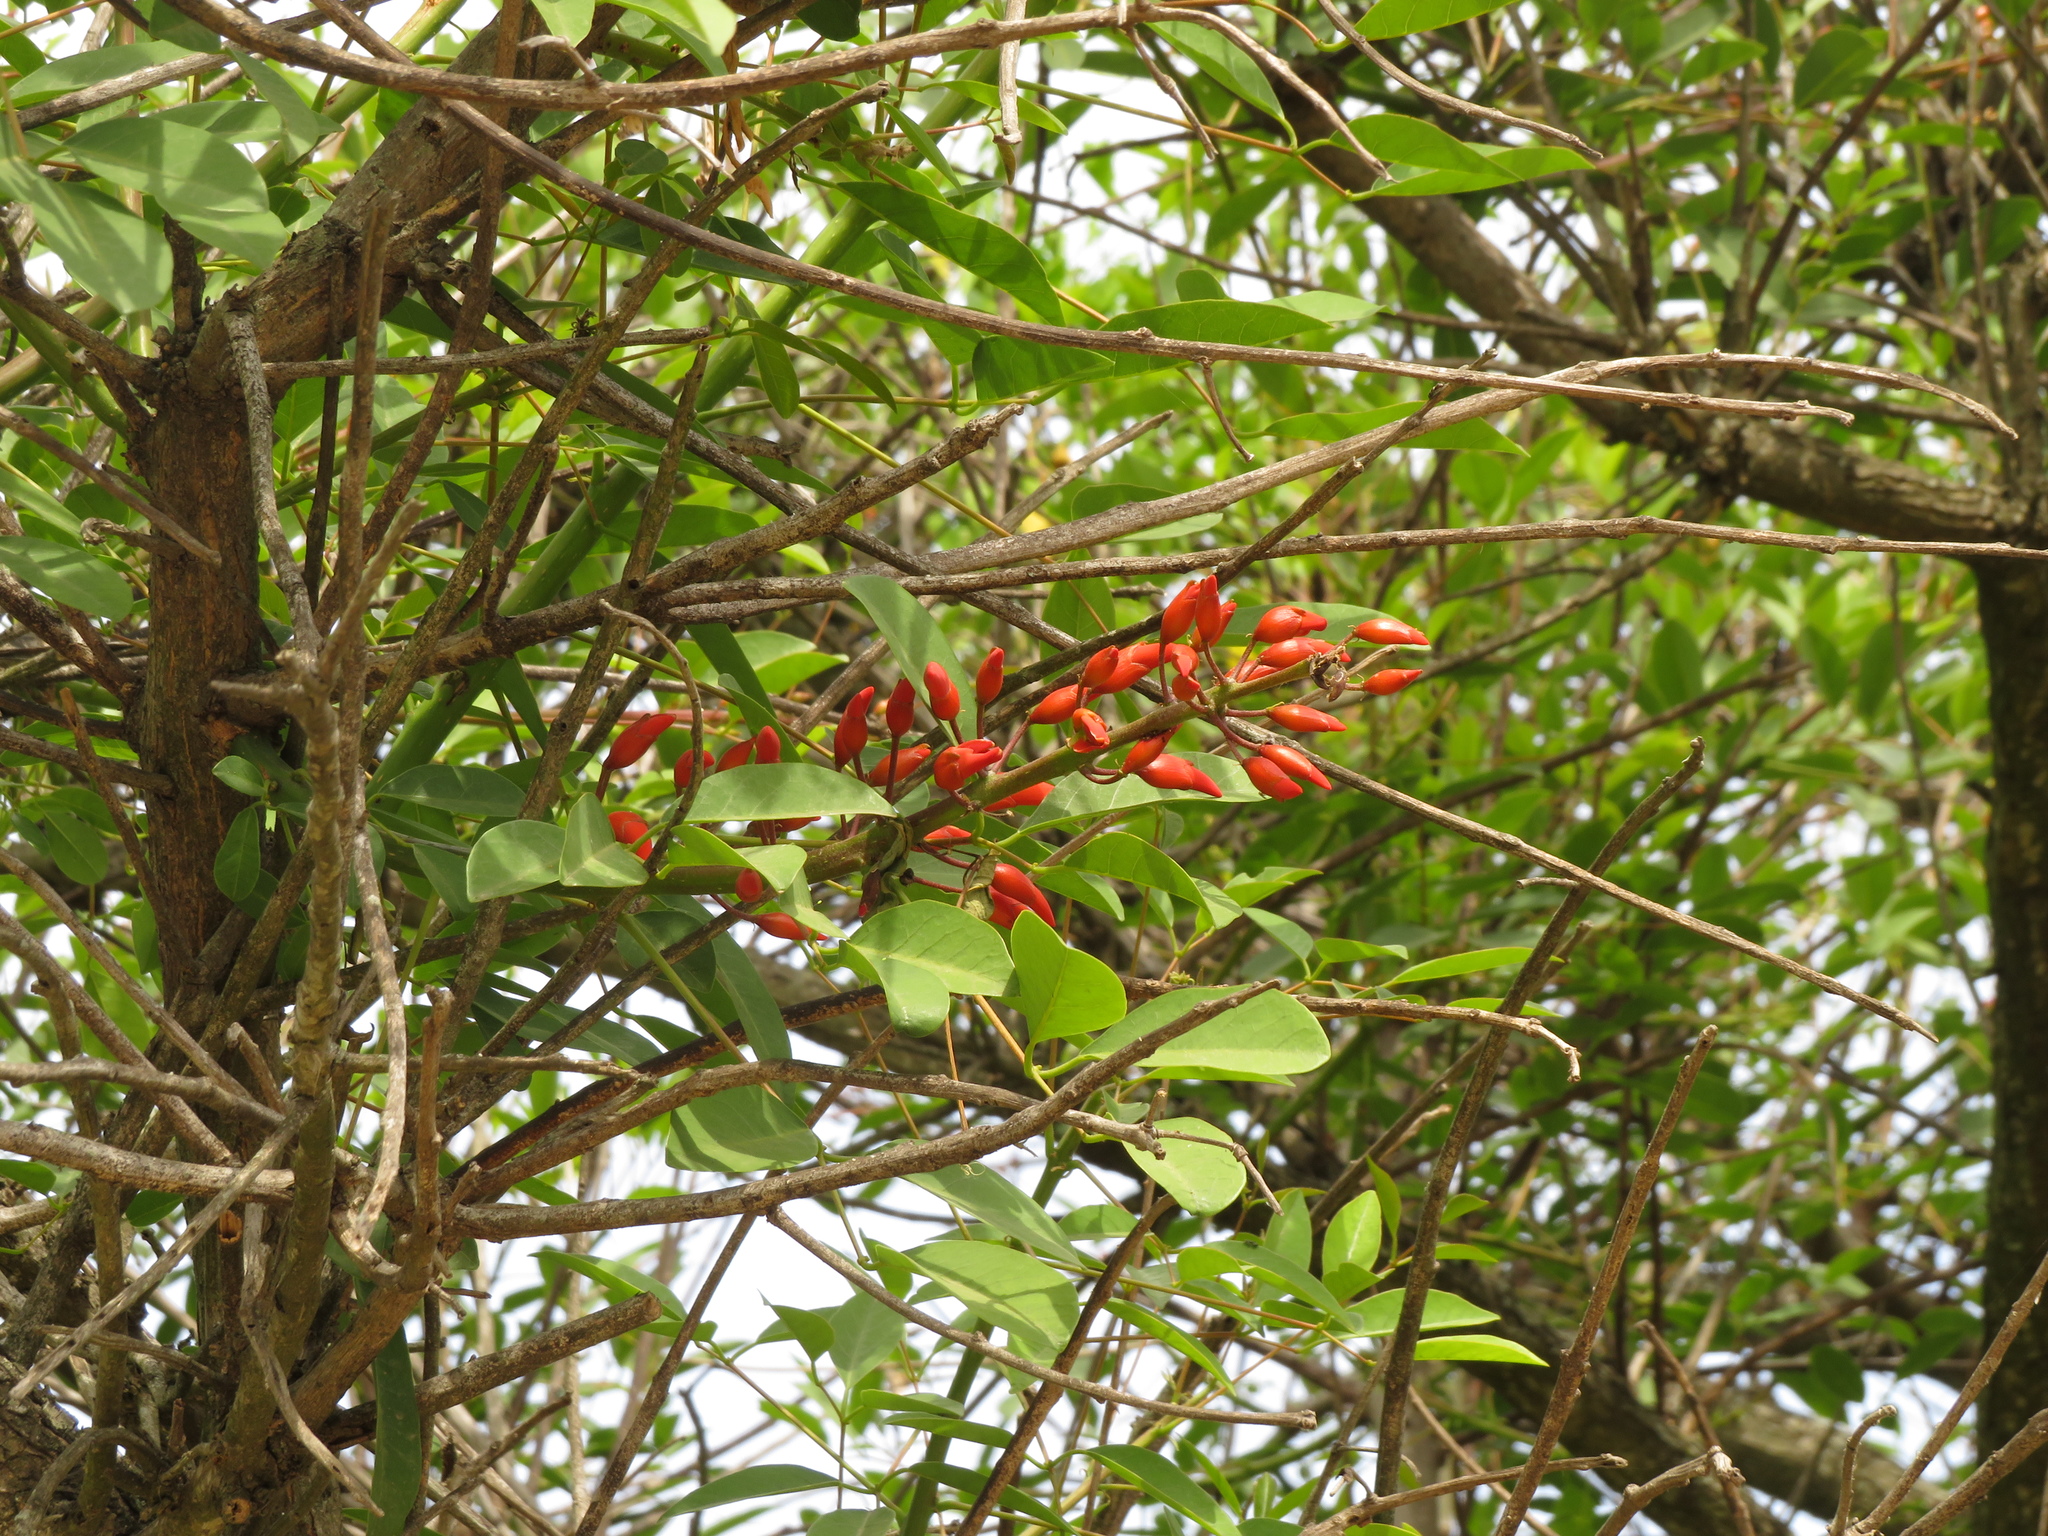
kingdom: Plantae
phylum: Tracheophyta
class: Magnoliopsida
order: Fabales
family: Fabaceae
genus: Erythrina
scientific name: Erythrina crista-galli
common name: Cockspur coral tree
